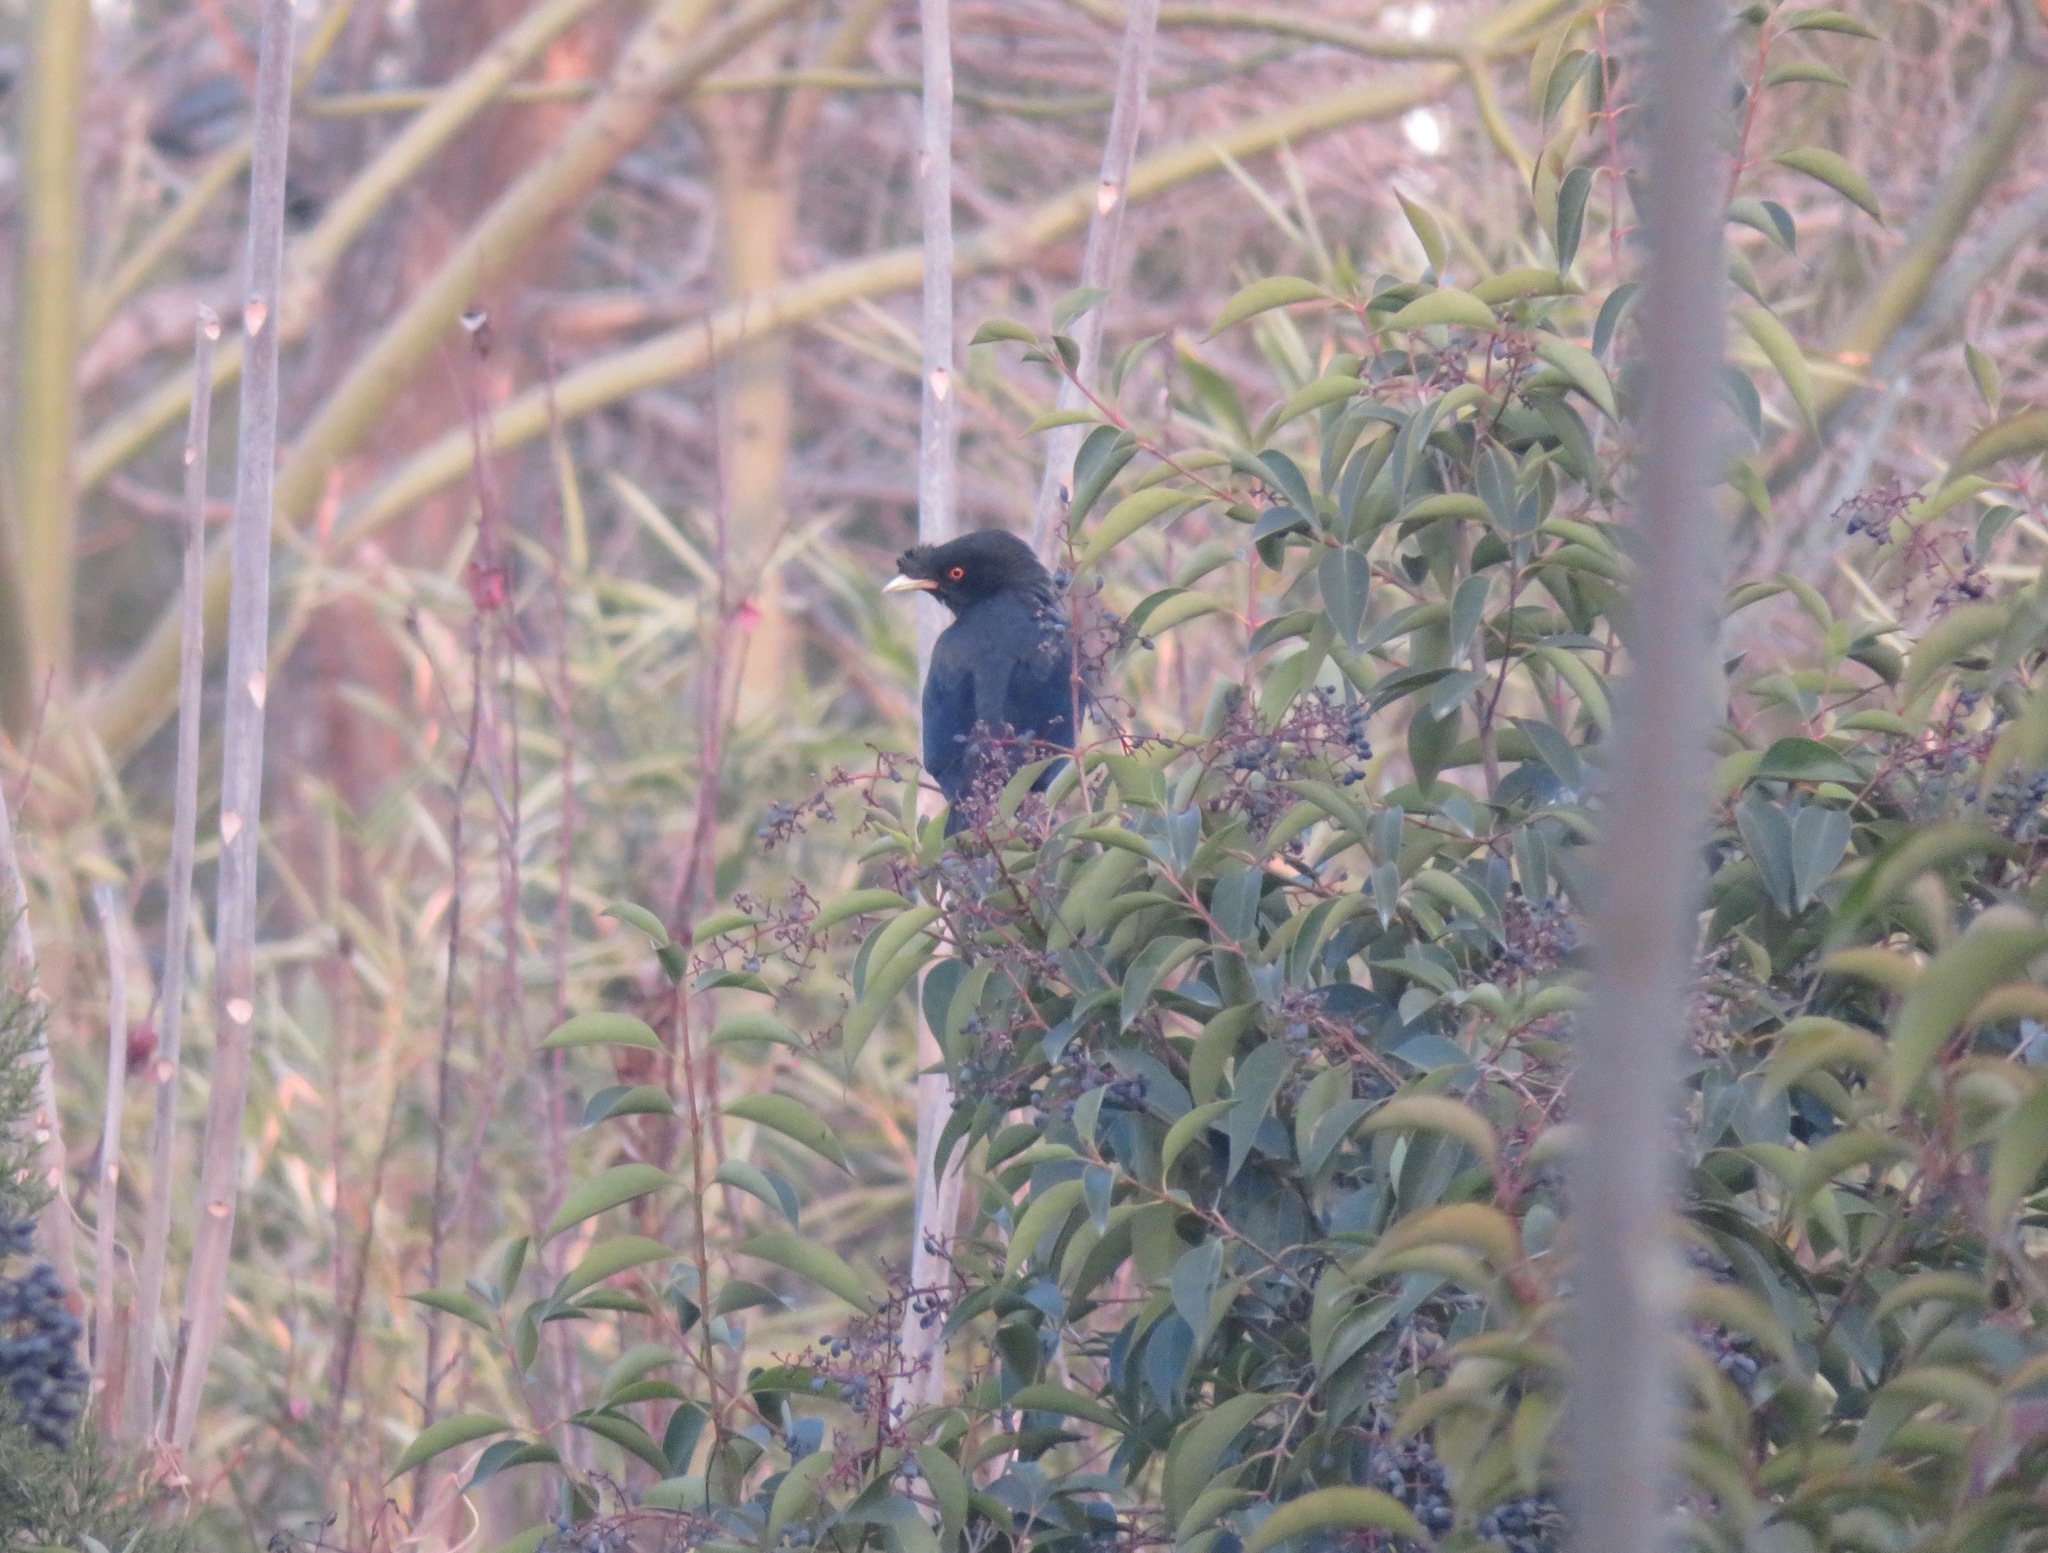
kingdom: Animalia
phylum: Chordata
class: Aves
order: Passeriformes
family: Sturnidae
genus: Acridotheres
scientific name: Acridotheres cristatellus
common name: Crested myna
